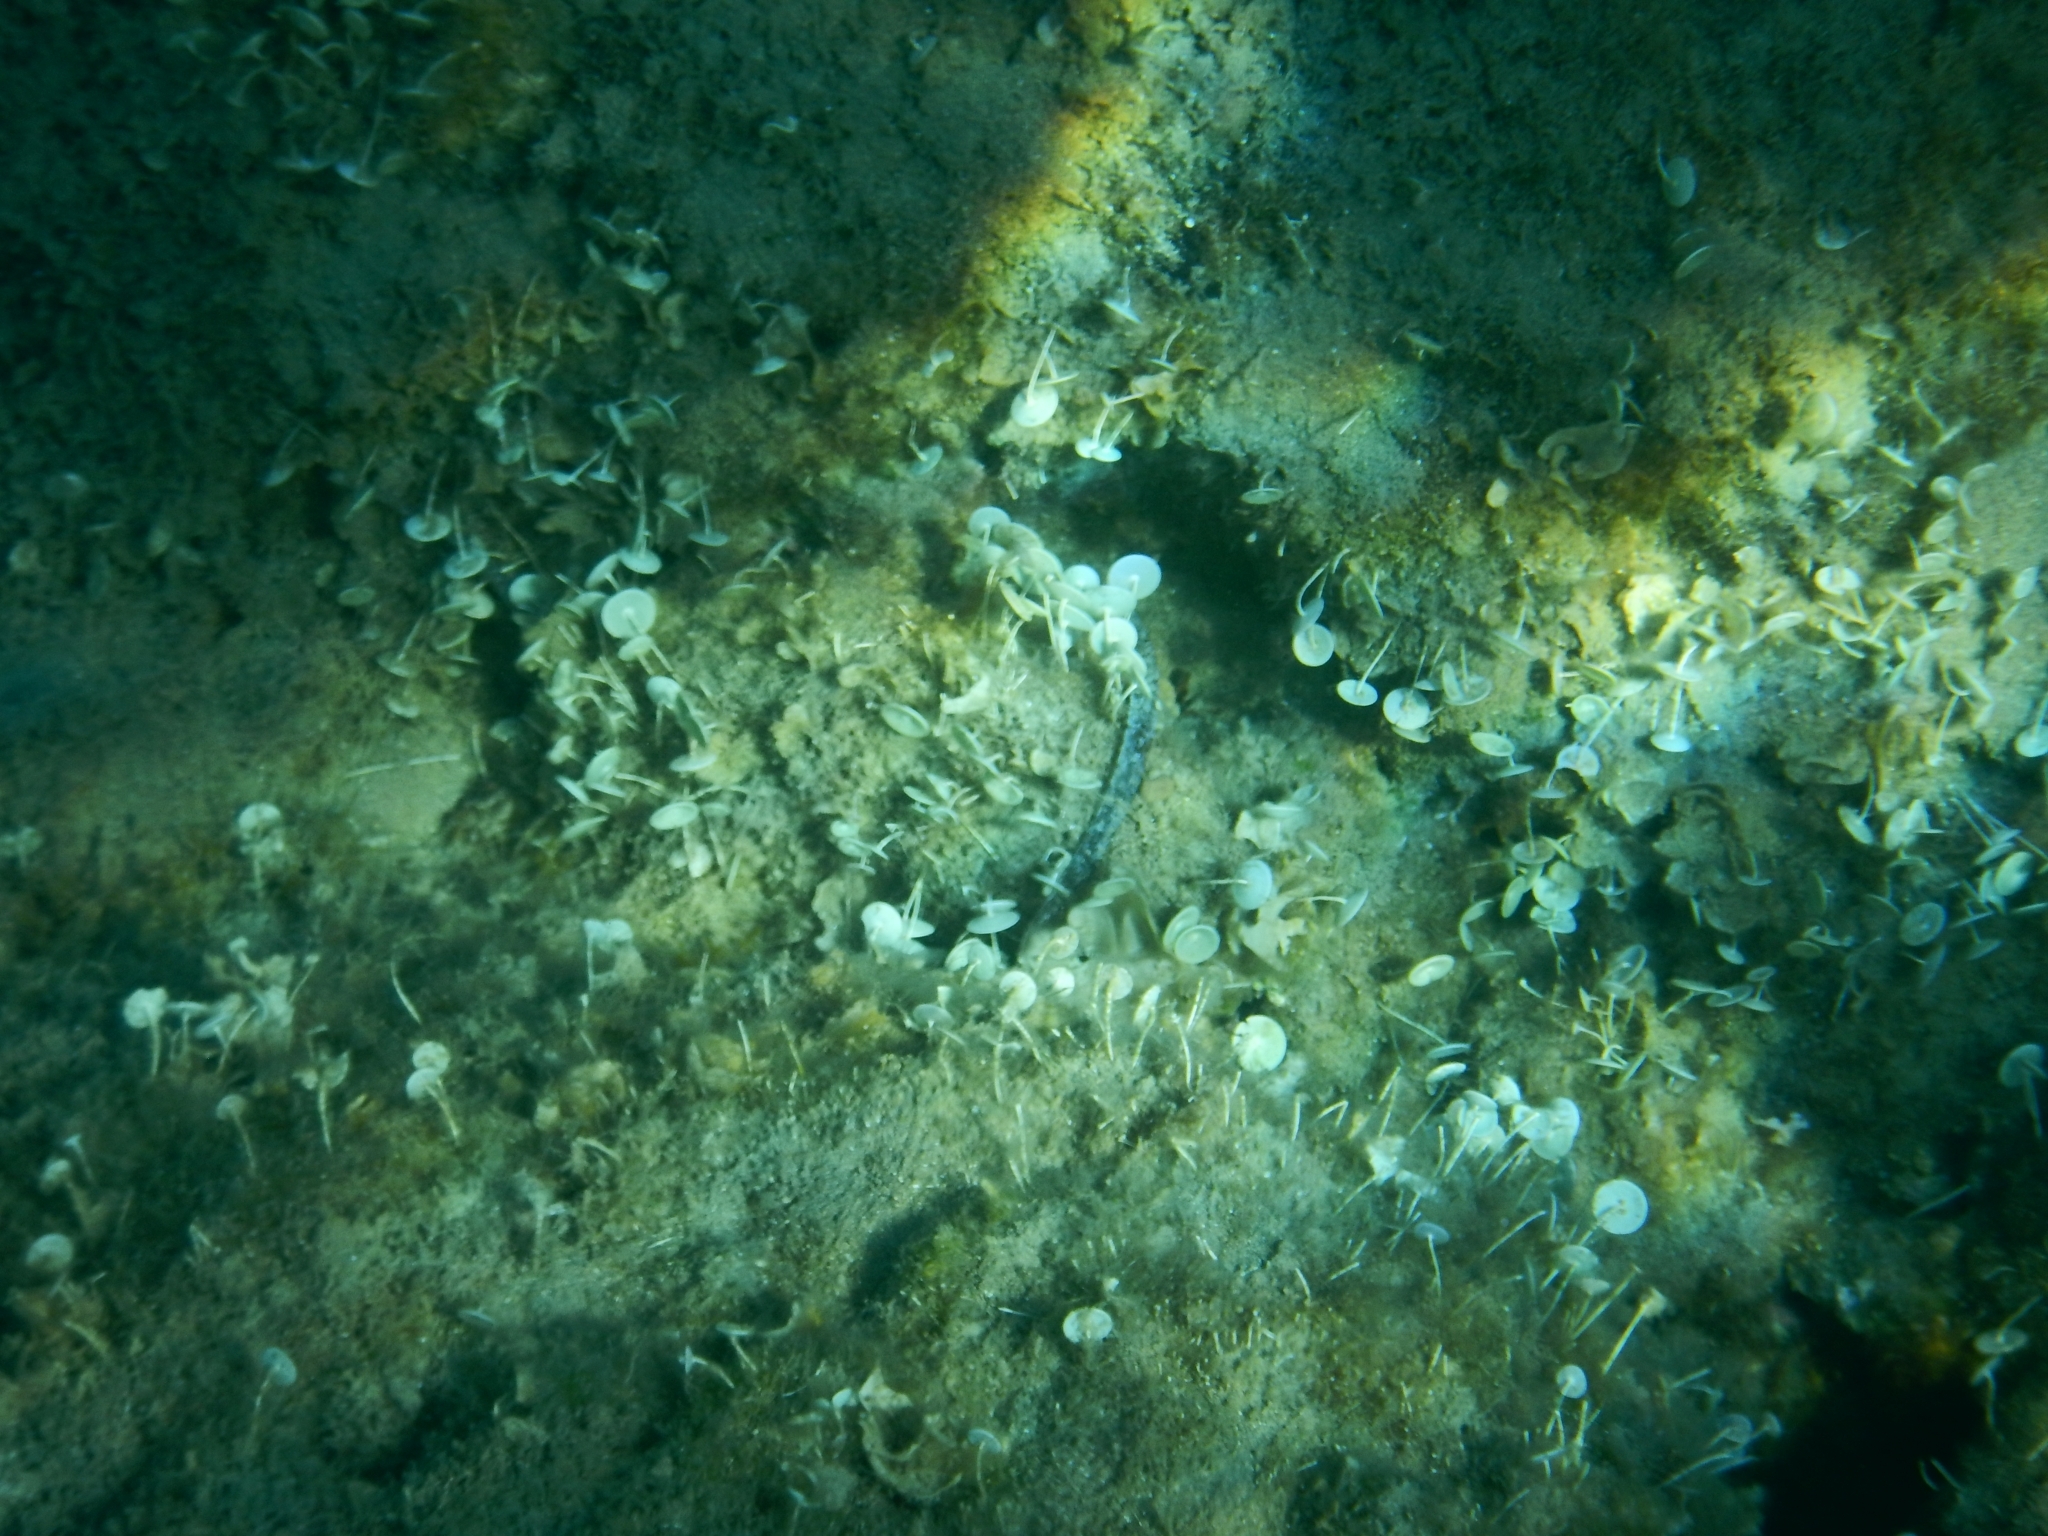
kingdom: Plantae
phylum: Chlorophyta
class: Ulvophyceae
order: Dasycladales
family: Polyphysaceae
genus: Acetabularia
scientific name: Acetabularia acetabulum
